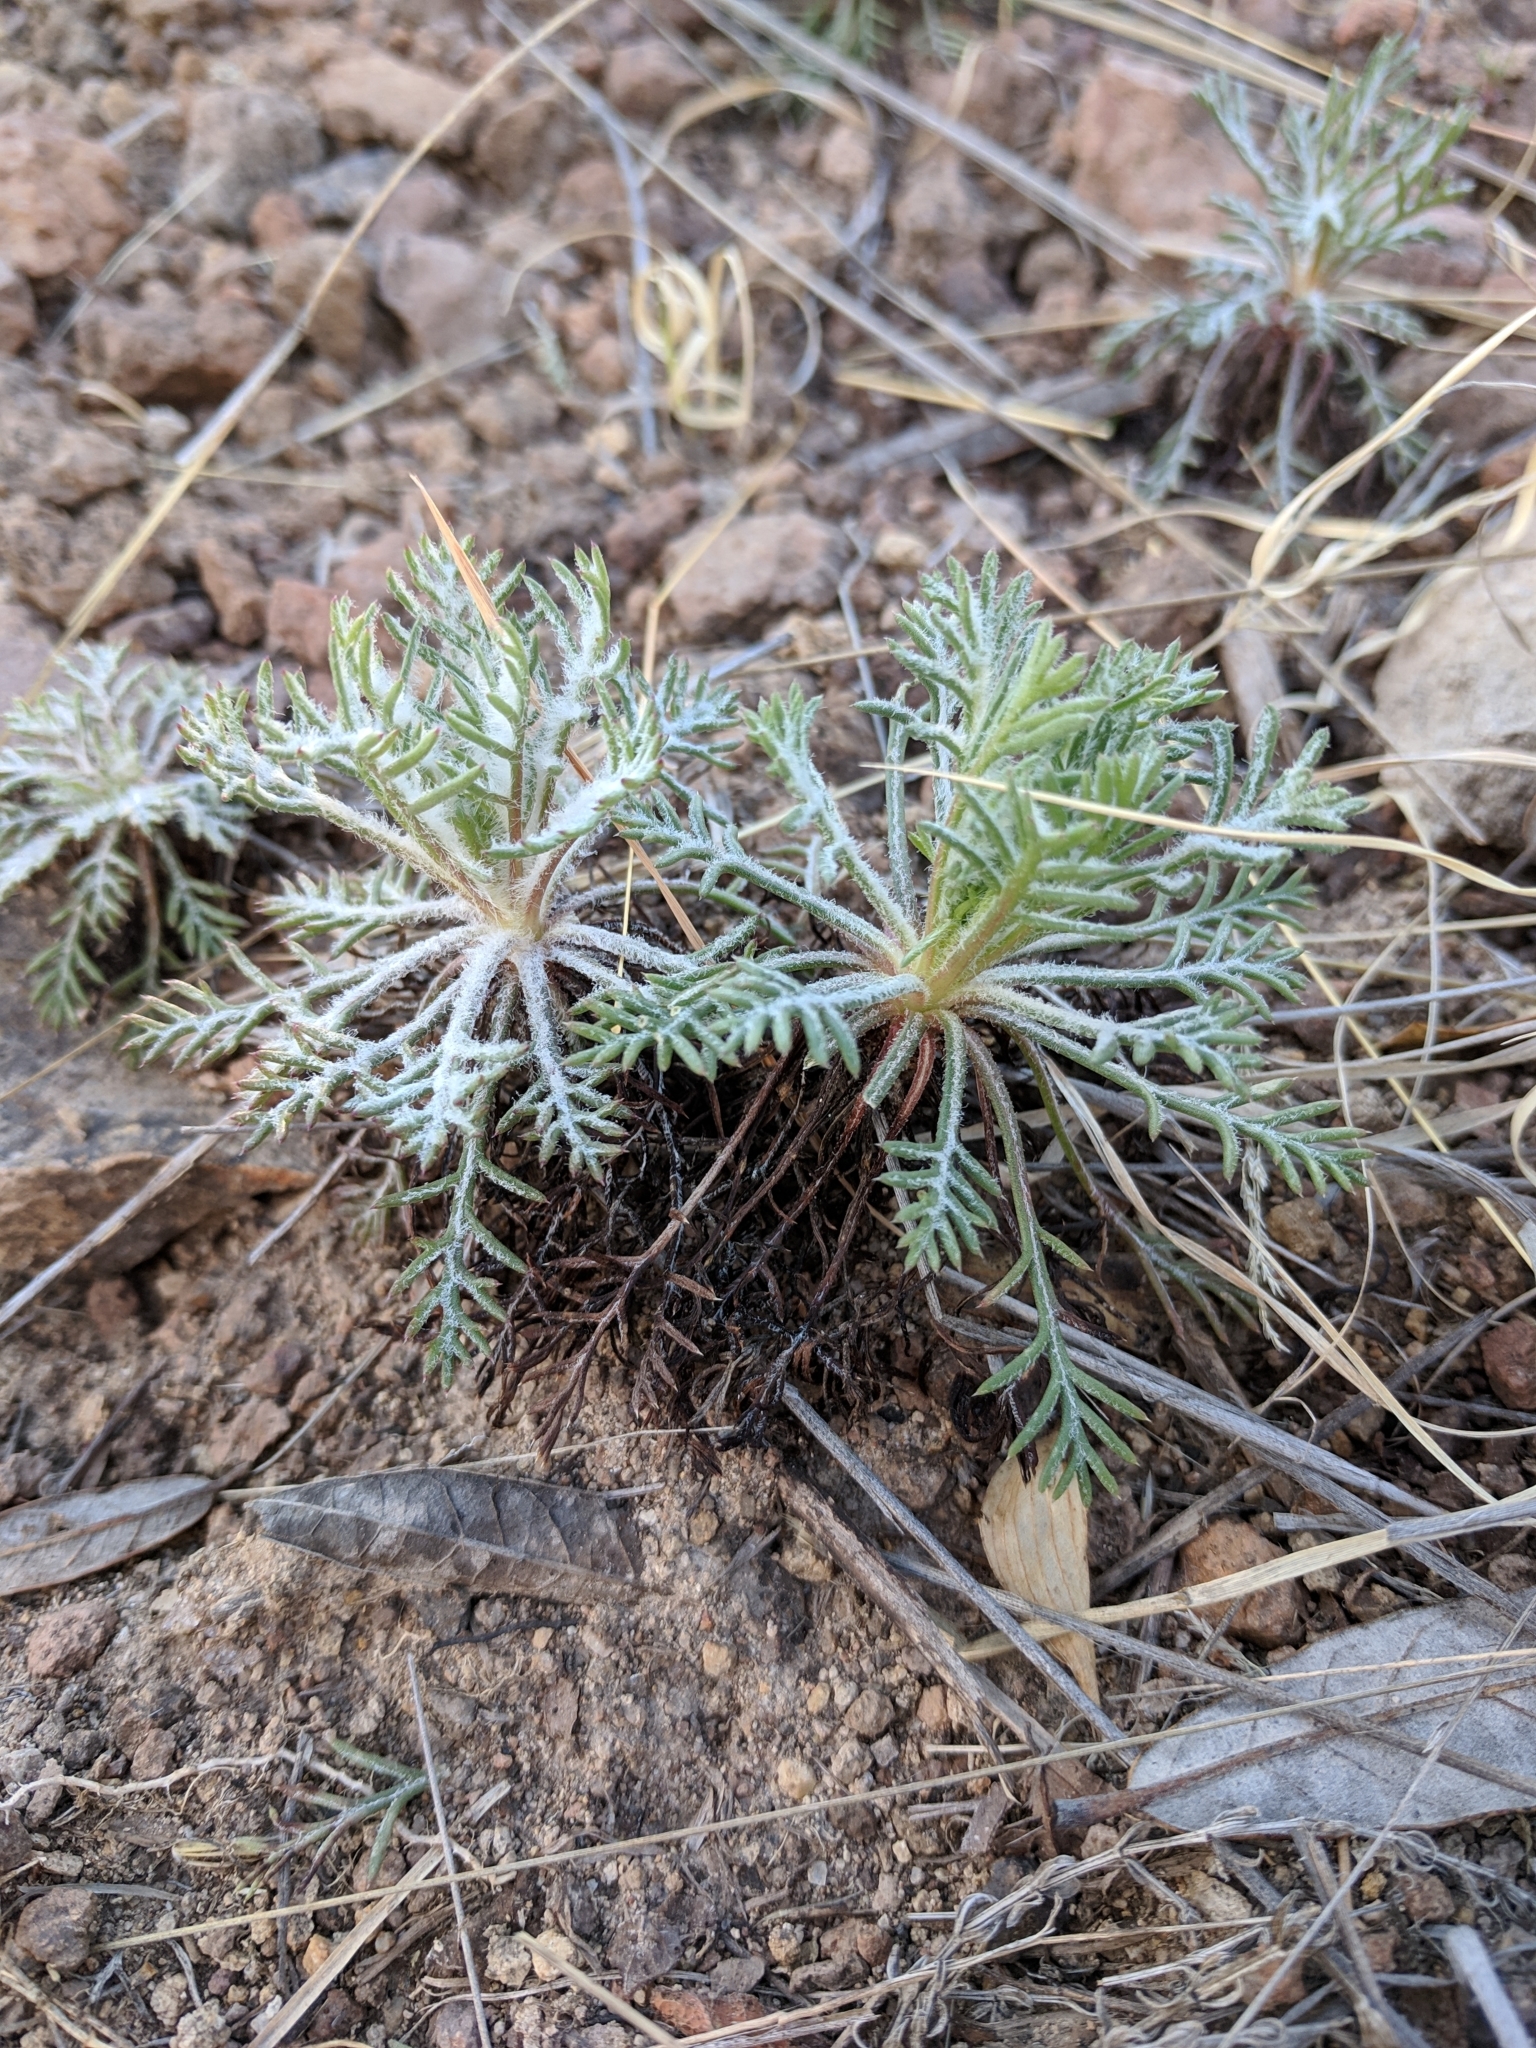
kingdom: Plantae
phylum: Tracheophyta
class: Magnoliopsida
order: Ericales
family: Polemoniaceae
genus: Ipomopsis
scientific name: Ipomopsis aggregata
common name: Scarlet gilia
